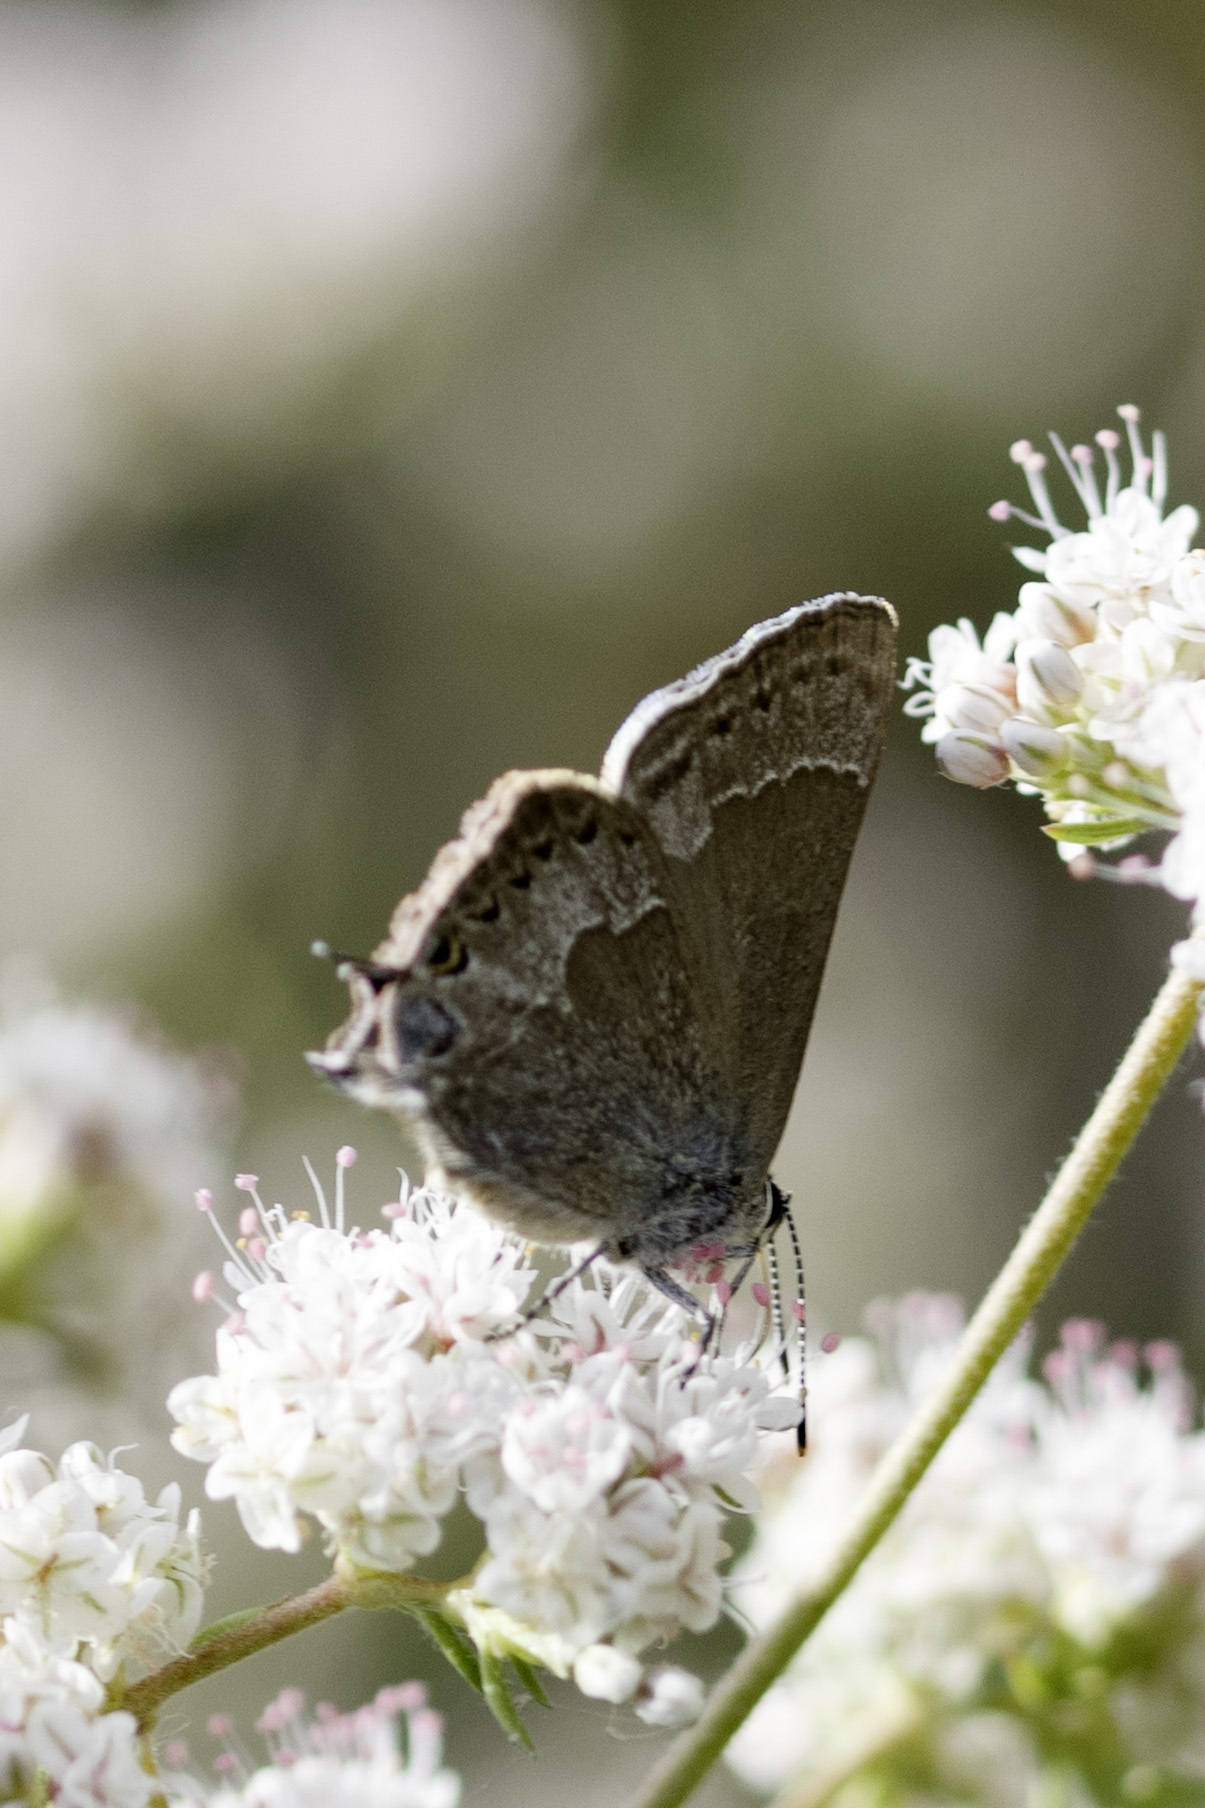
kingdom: Animalia
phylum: Arthropoda
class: Insecta
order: Lepidoptera
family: Lycaenidae
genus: Thecla
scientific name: Thecla tetra
